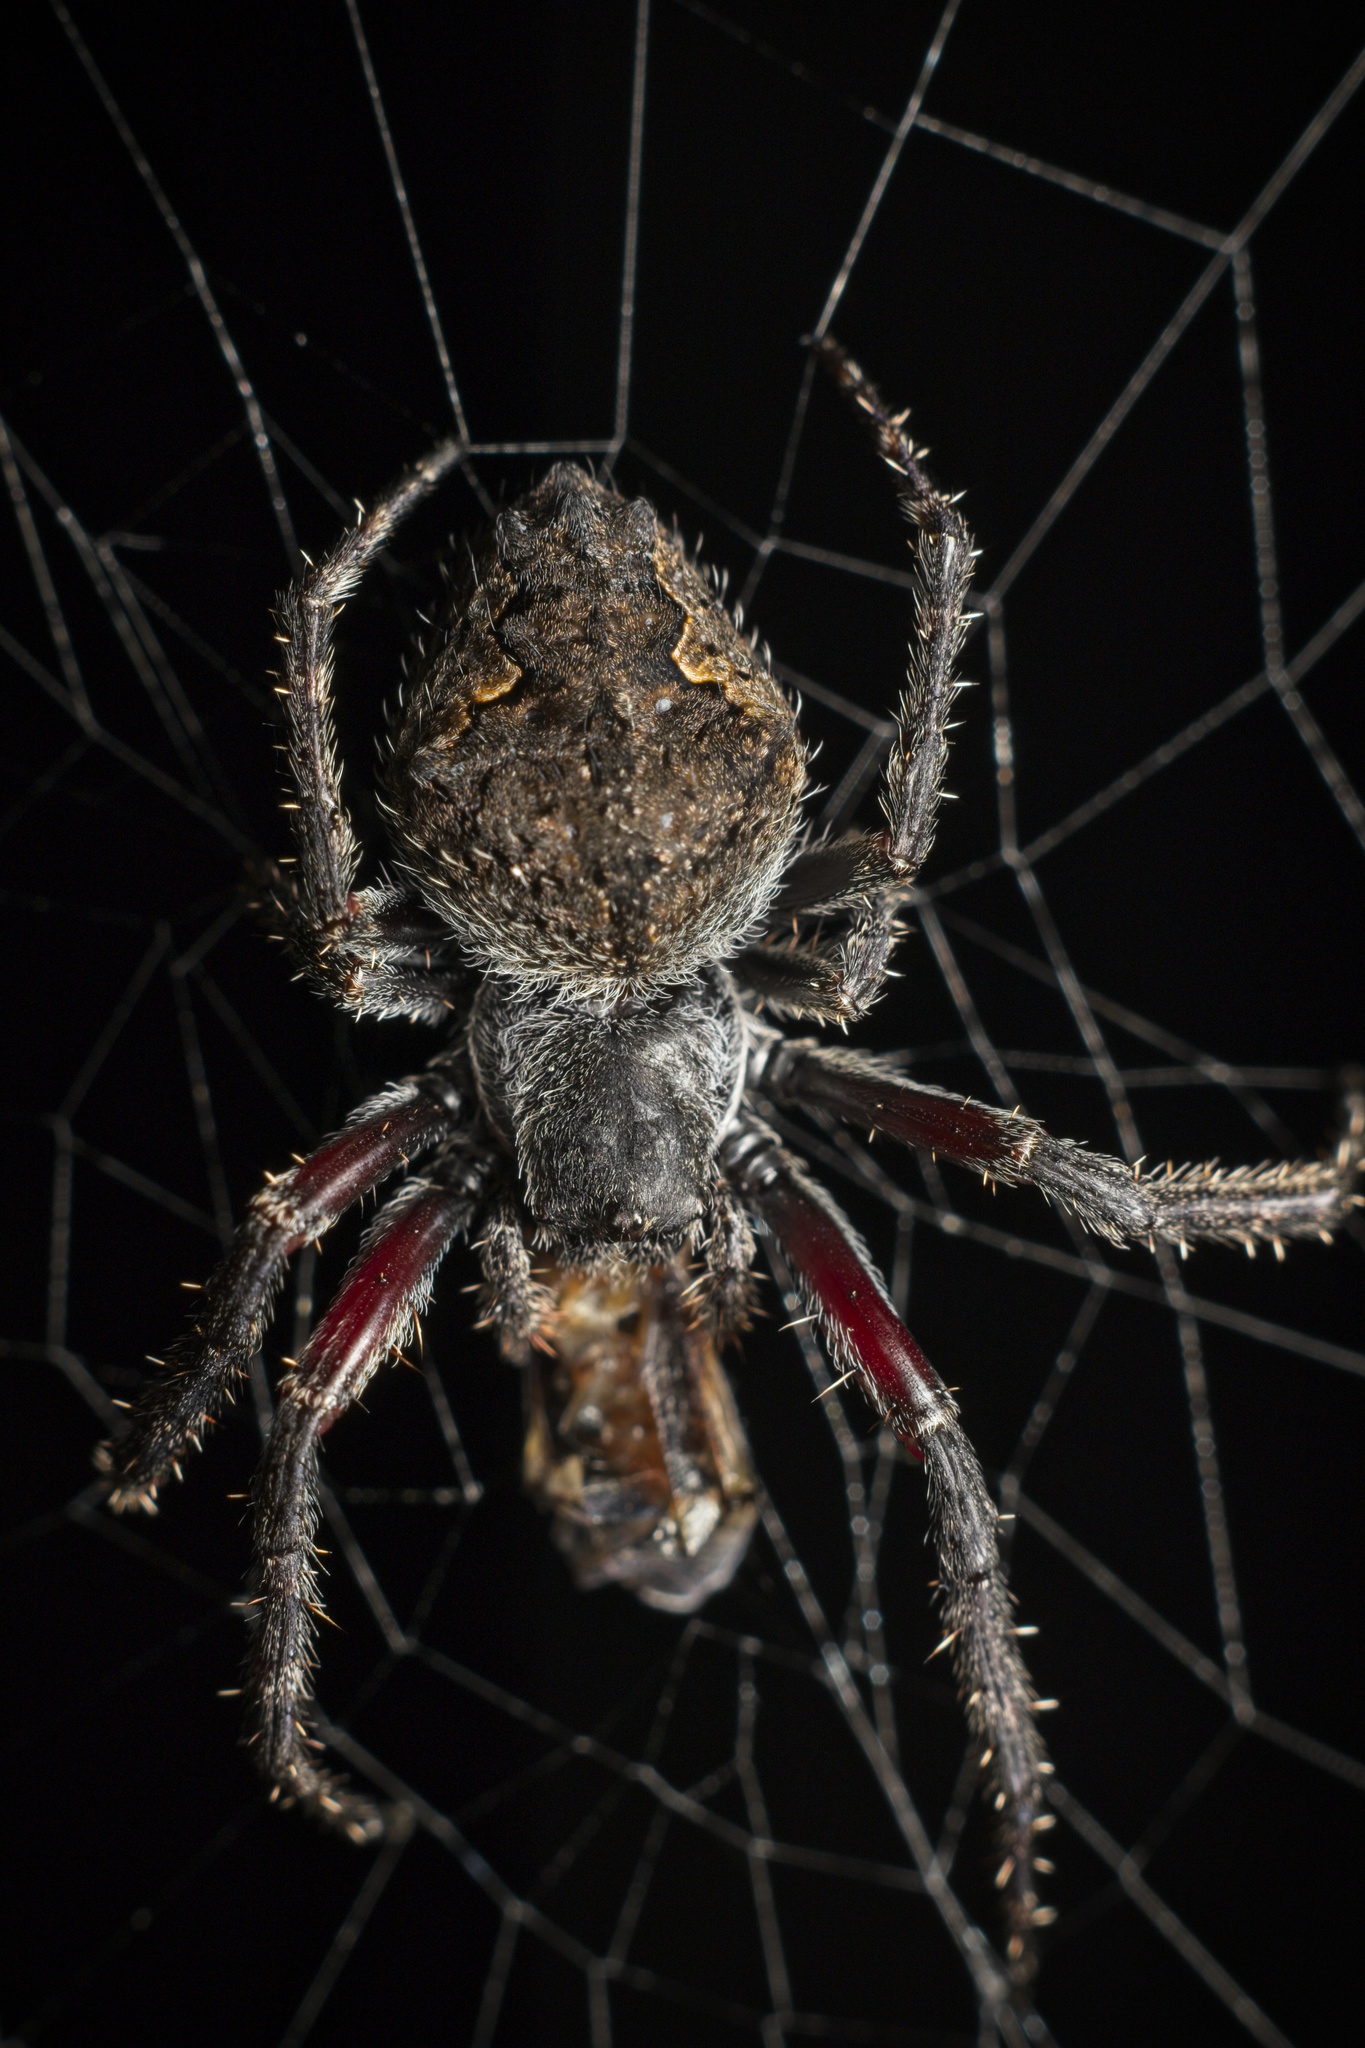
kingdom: Animalia
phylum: Arthropoda
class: Arachnida
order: Araneae
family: Araneidae
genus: Eriophora
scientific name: Eriophora pustulosa
